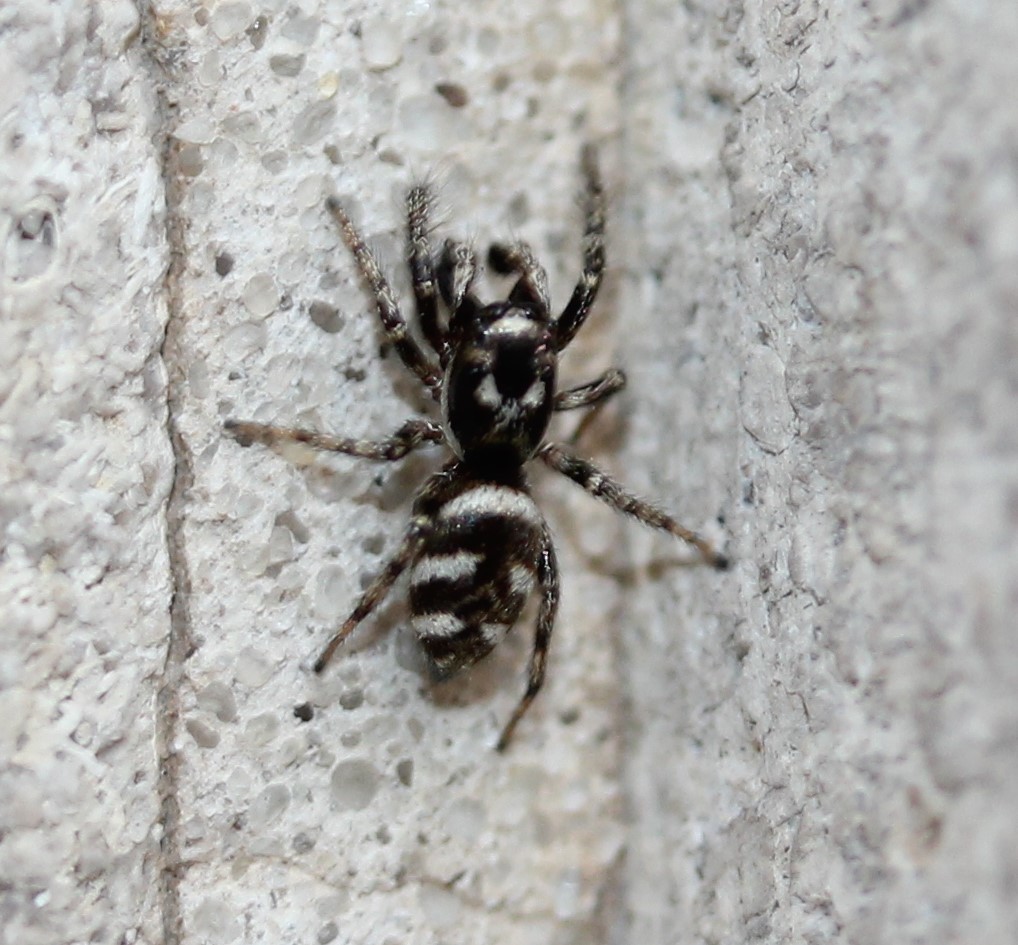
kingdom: Animalia
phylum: Arthropoda
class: Arachnida
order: Araneae
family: Salticidae
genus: Salticus
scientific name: Salticus scenicus
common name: Zebra jumper
